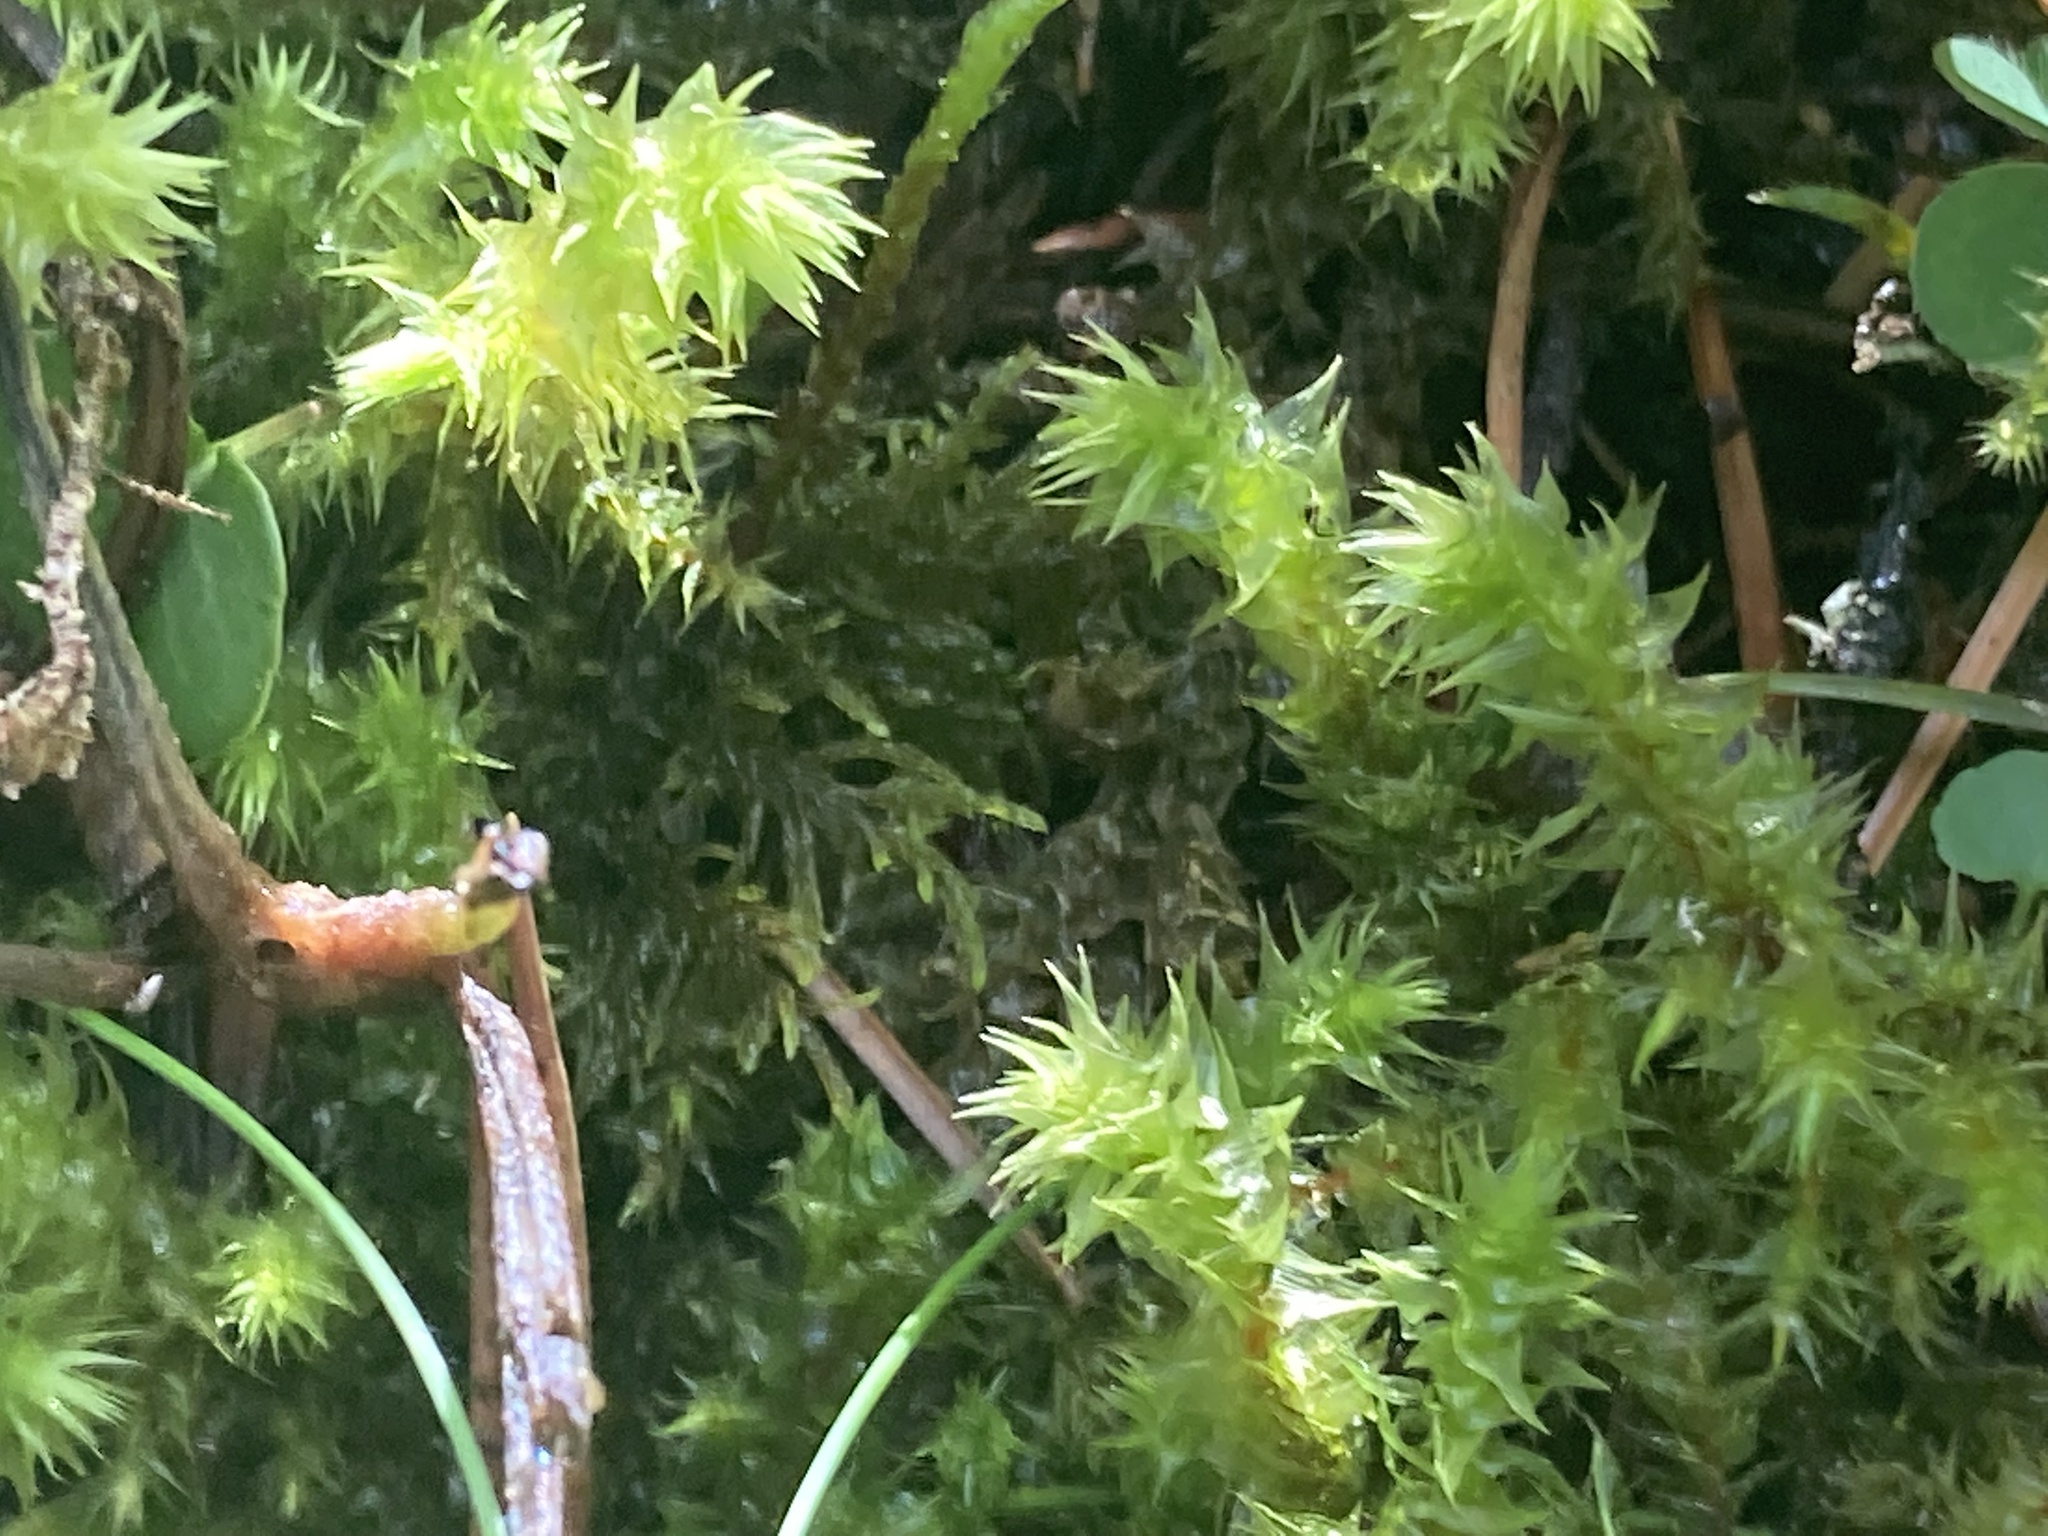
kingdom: Plantae
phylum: Bryophyta
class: Bryopsida
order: Hypnales
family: Hylocomiaceae
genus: Hylocomiadelphus
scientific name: Hylocomiadelphus triquetrus
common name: Rough goose neck moss
